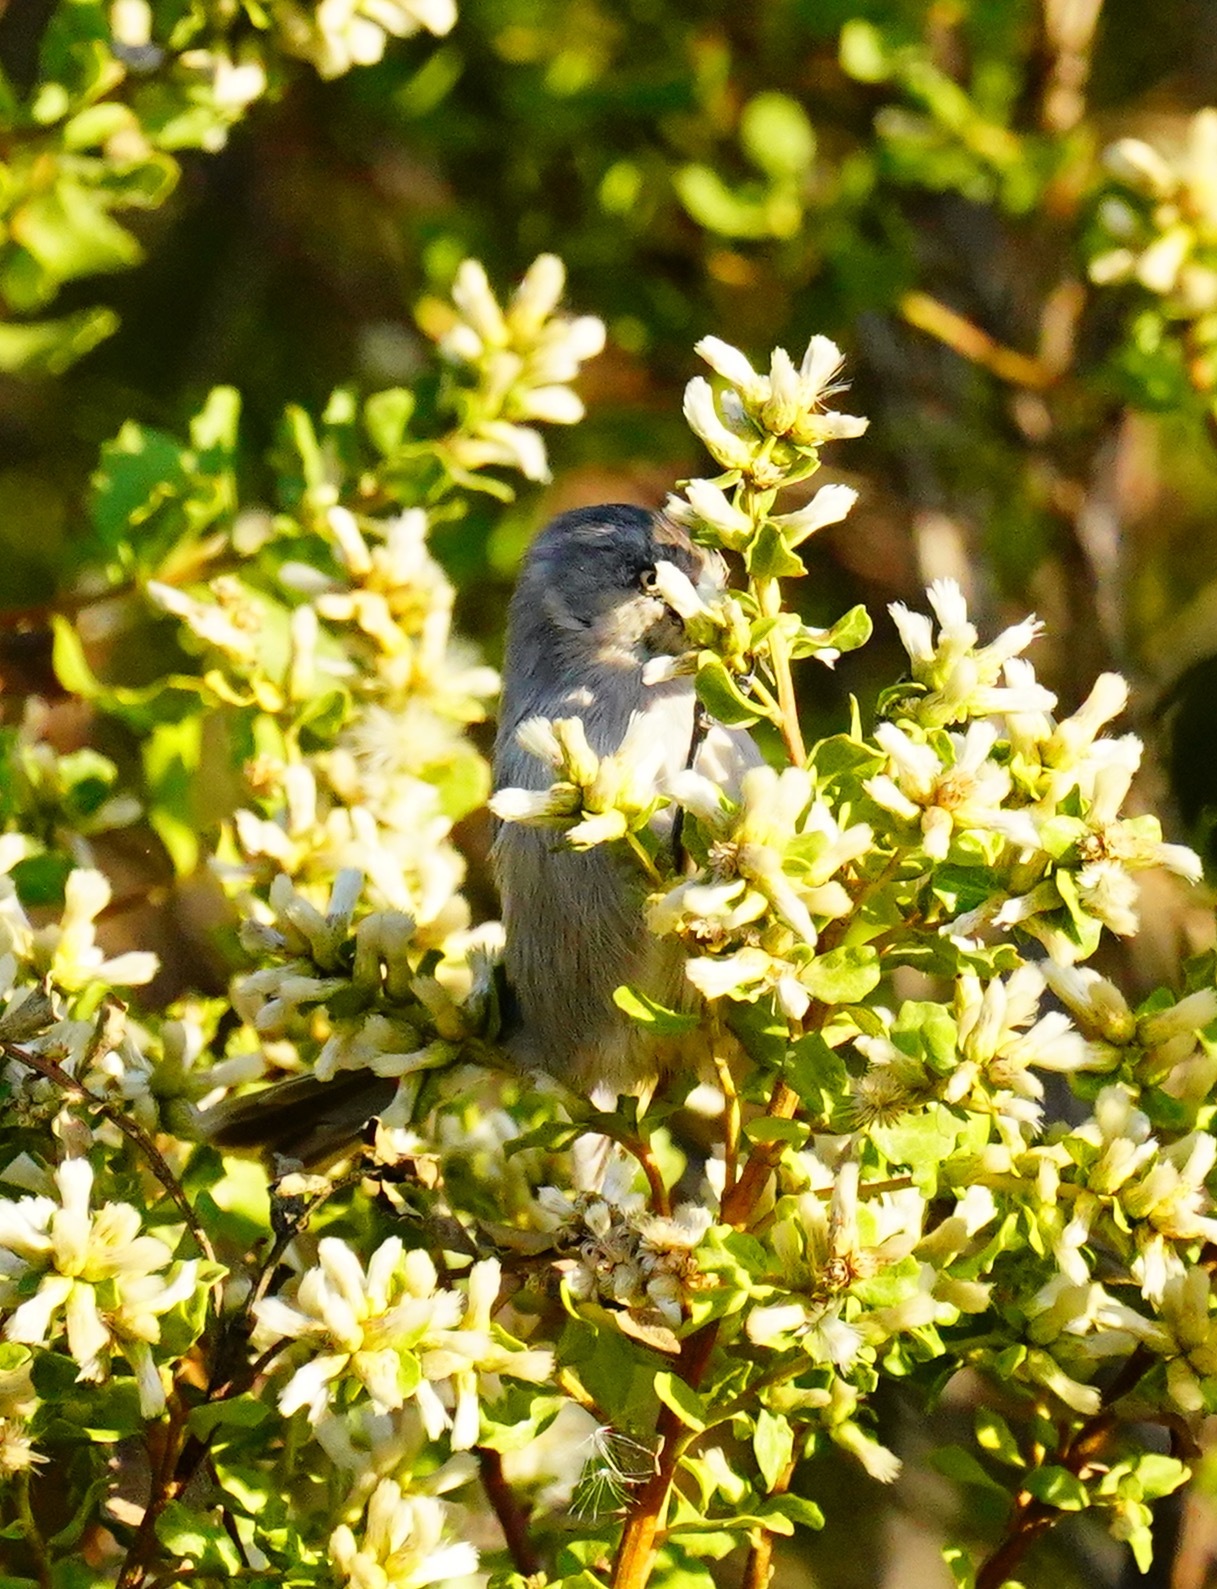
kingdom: Animalia
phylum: Chordata
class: Aves
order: Passeriformes
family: Aegithalidae
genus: Psaltriparus
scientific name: Psaltriparus minimus
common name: American bushtit
